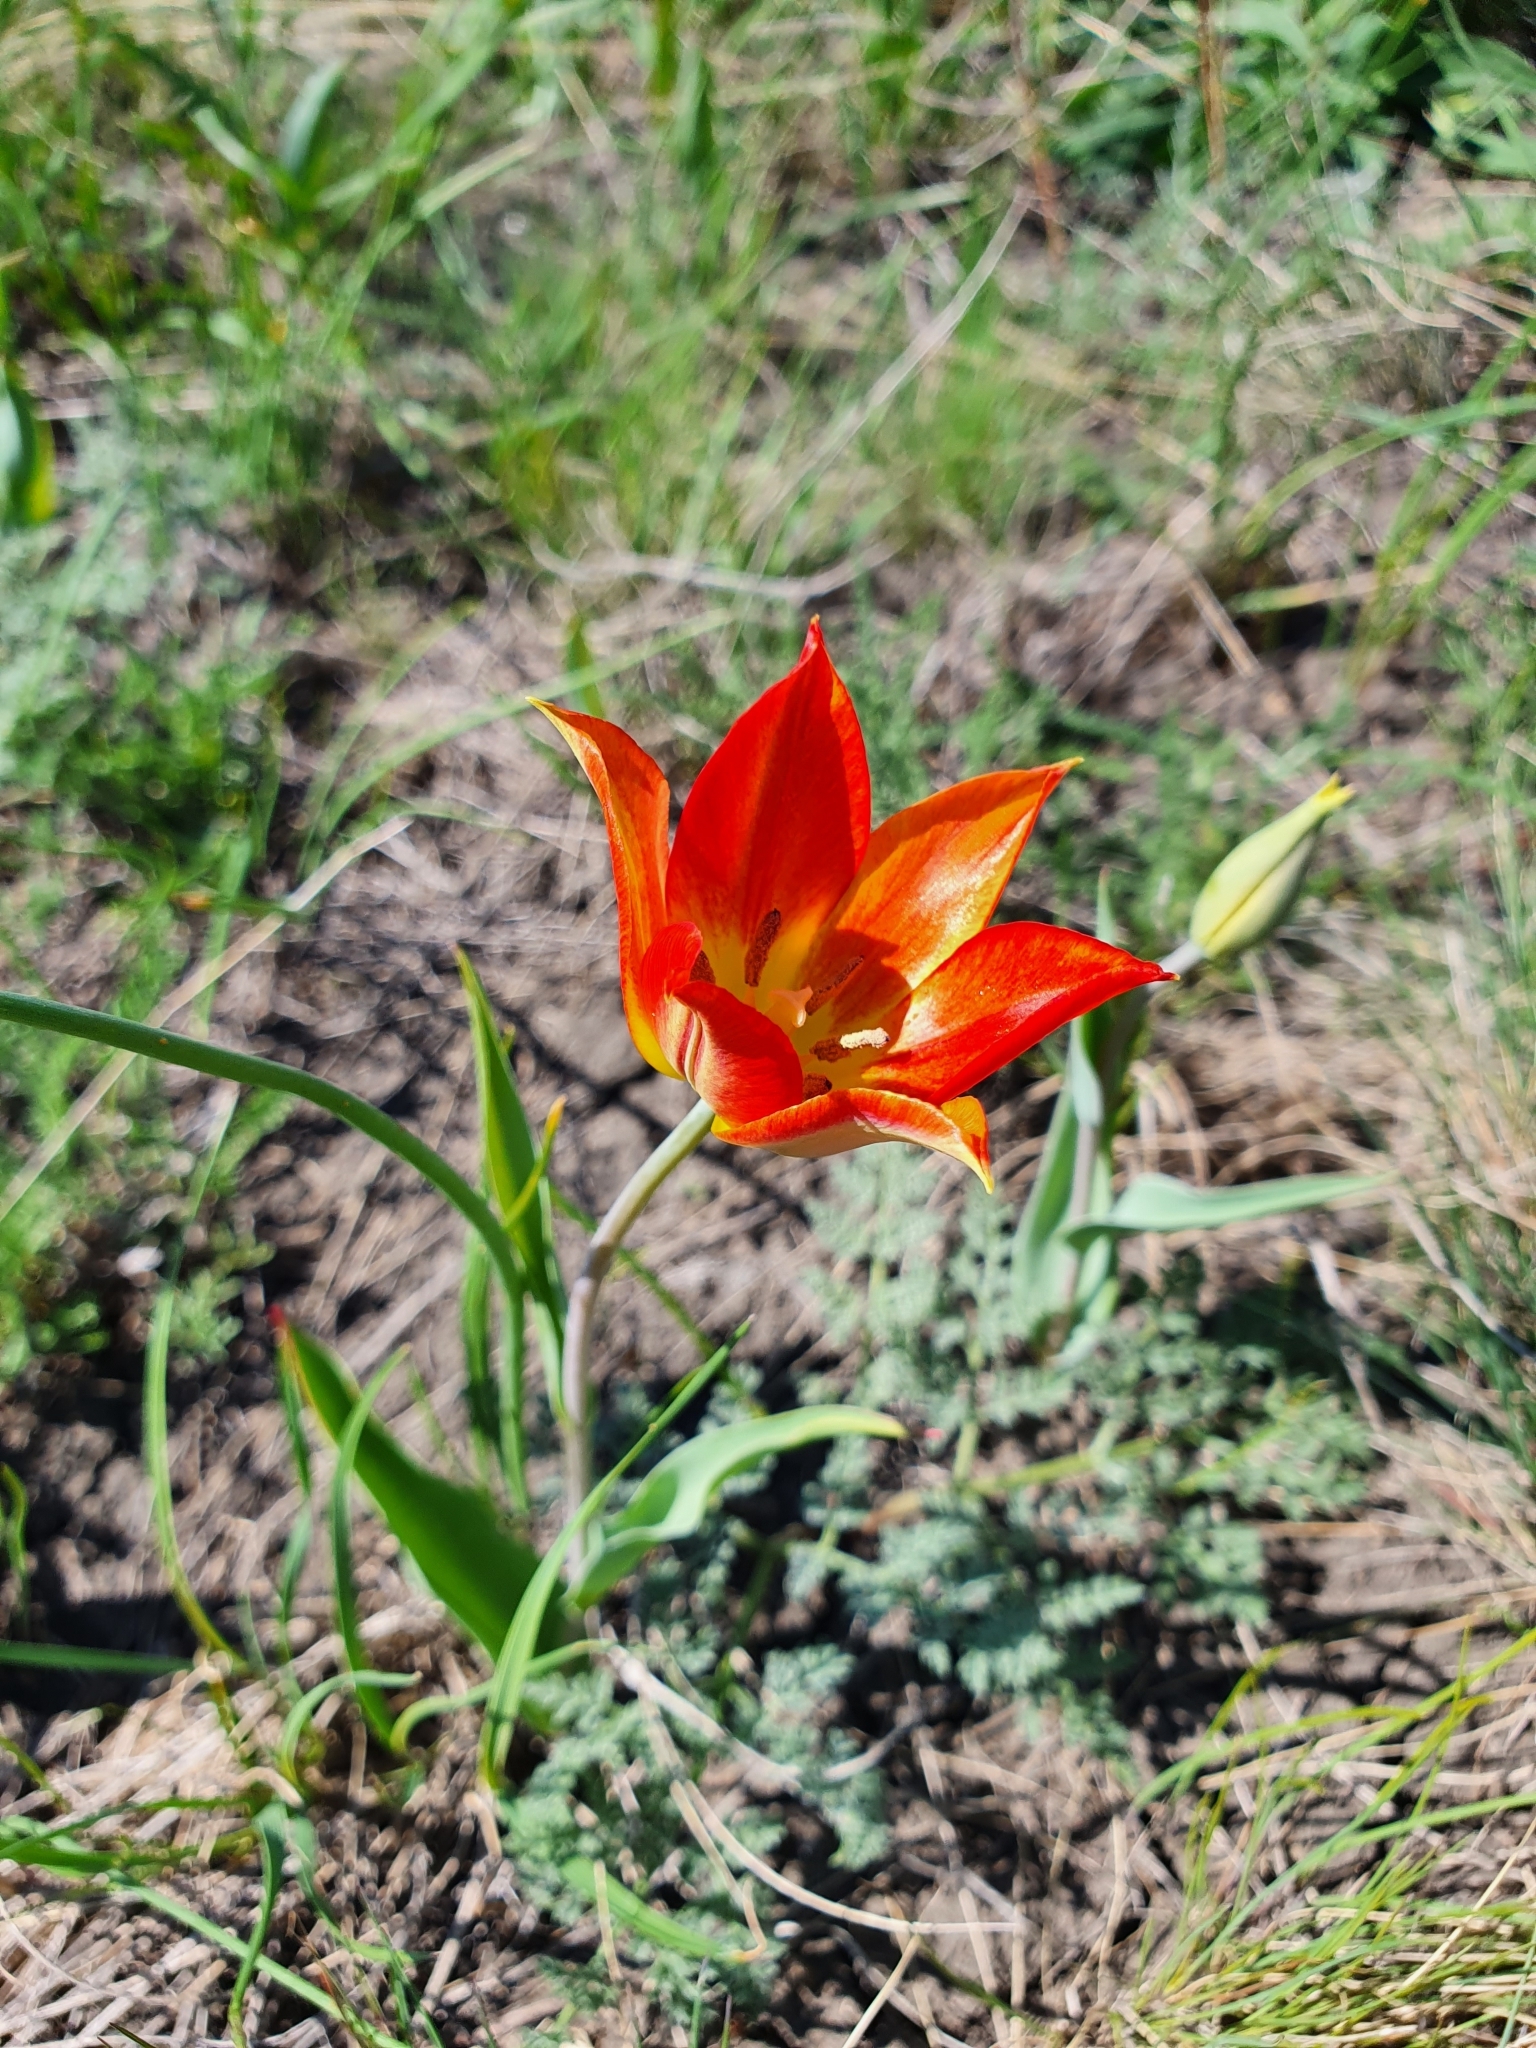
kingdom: Plantae
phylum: Tracheophyta
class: Liliopsida
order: Liliales
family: Liliaceae
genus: Tulipa
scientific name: Tulipa suaveolens
